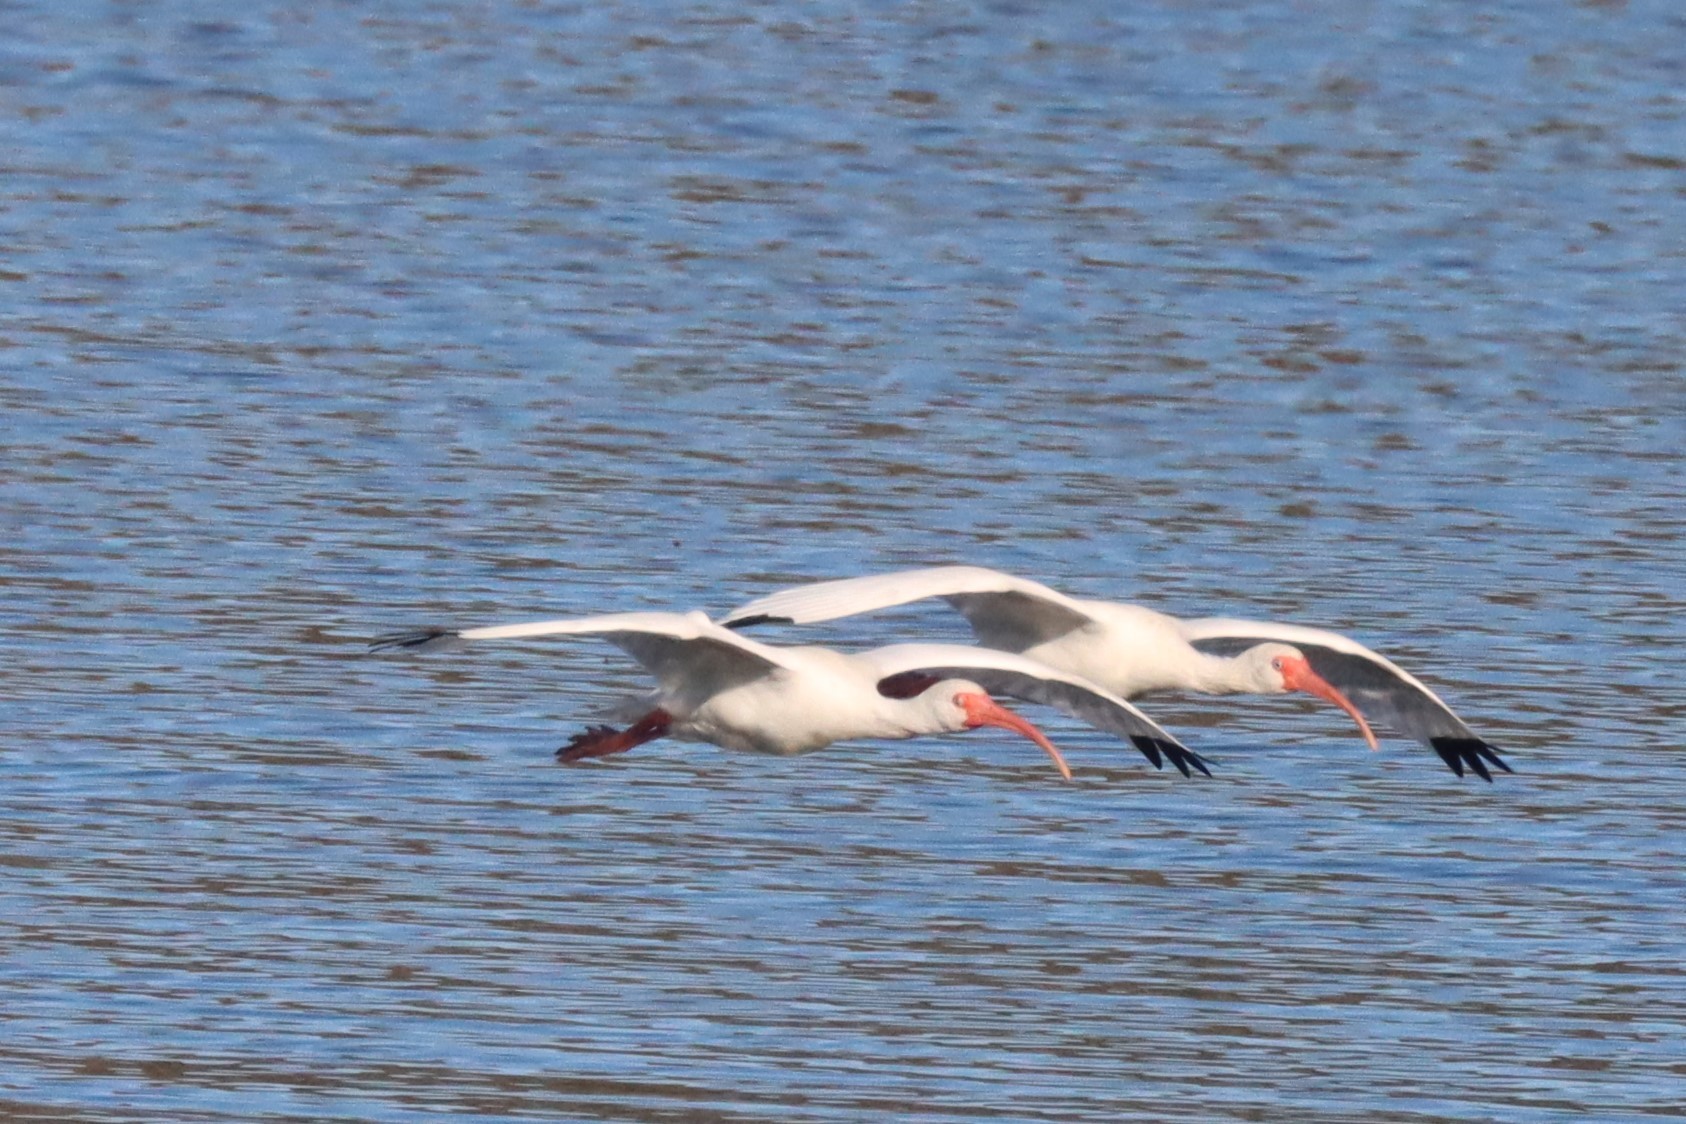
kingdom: Animalia
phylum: Chordata
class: Aves
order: Pelecaniformes
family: Threskiornithidae
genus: Eudocimus
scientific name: Eudocimus albus
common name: White ibis
